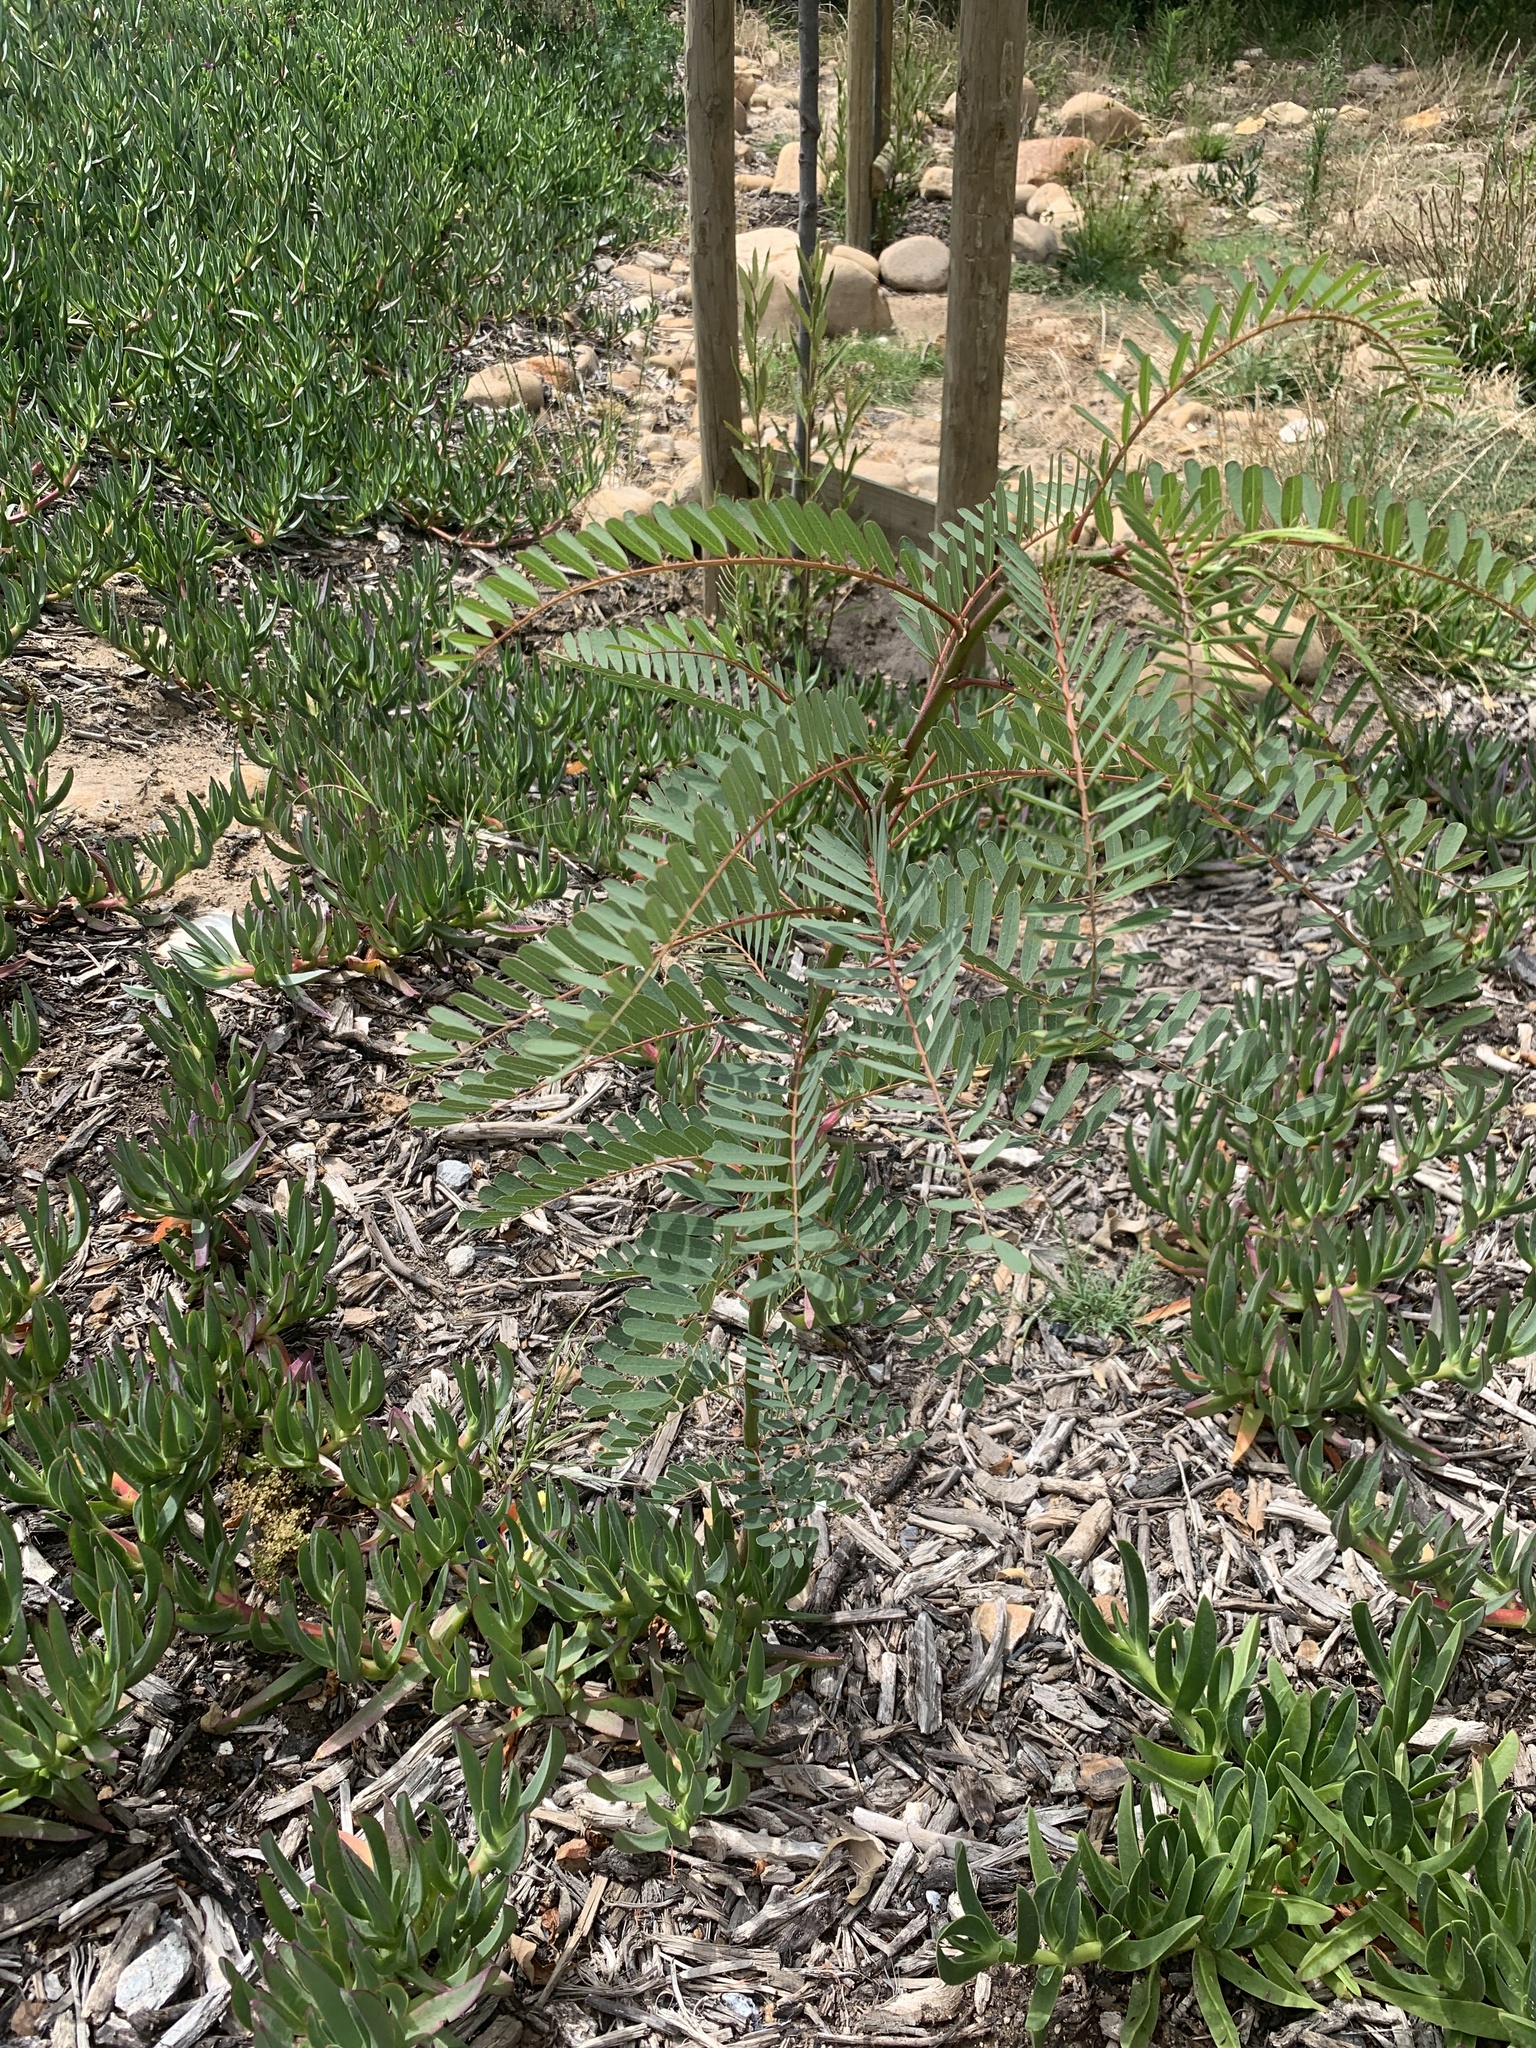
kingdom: Plantae
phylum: Tracheophyta
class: Magnoliopsida
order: Fabales
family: Fabaceae
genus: Sesbania
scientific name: Sesbania punicea
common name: Rattlebox
